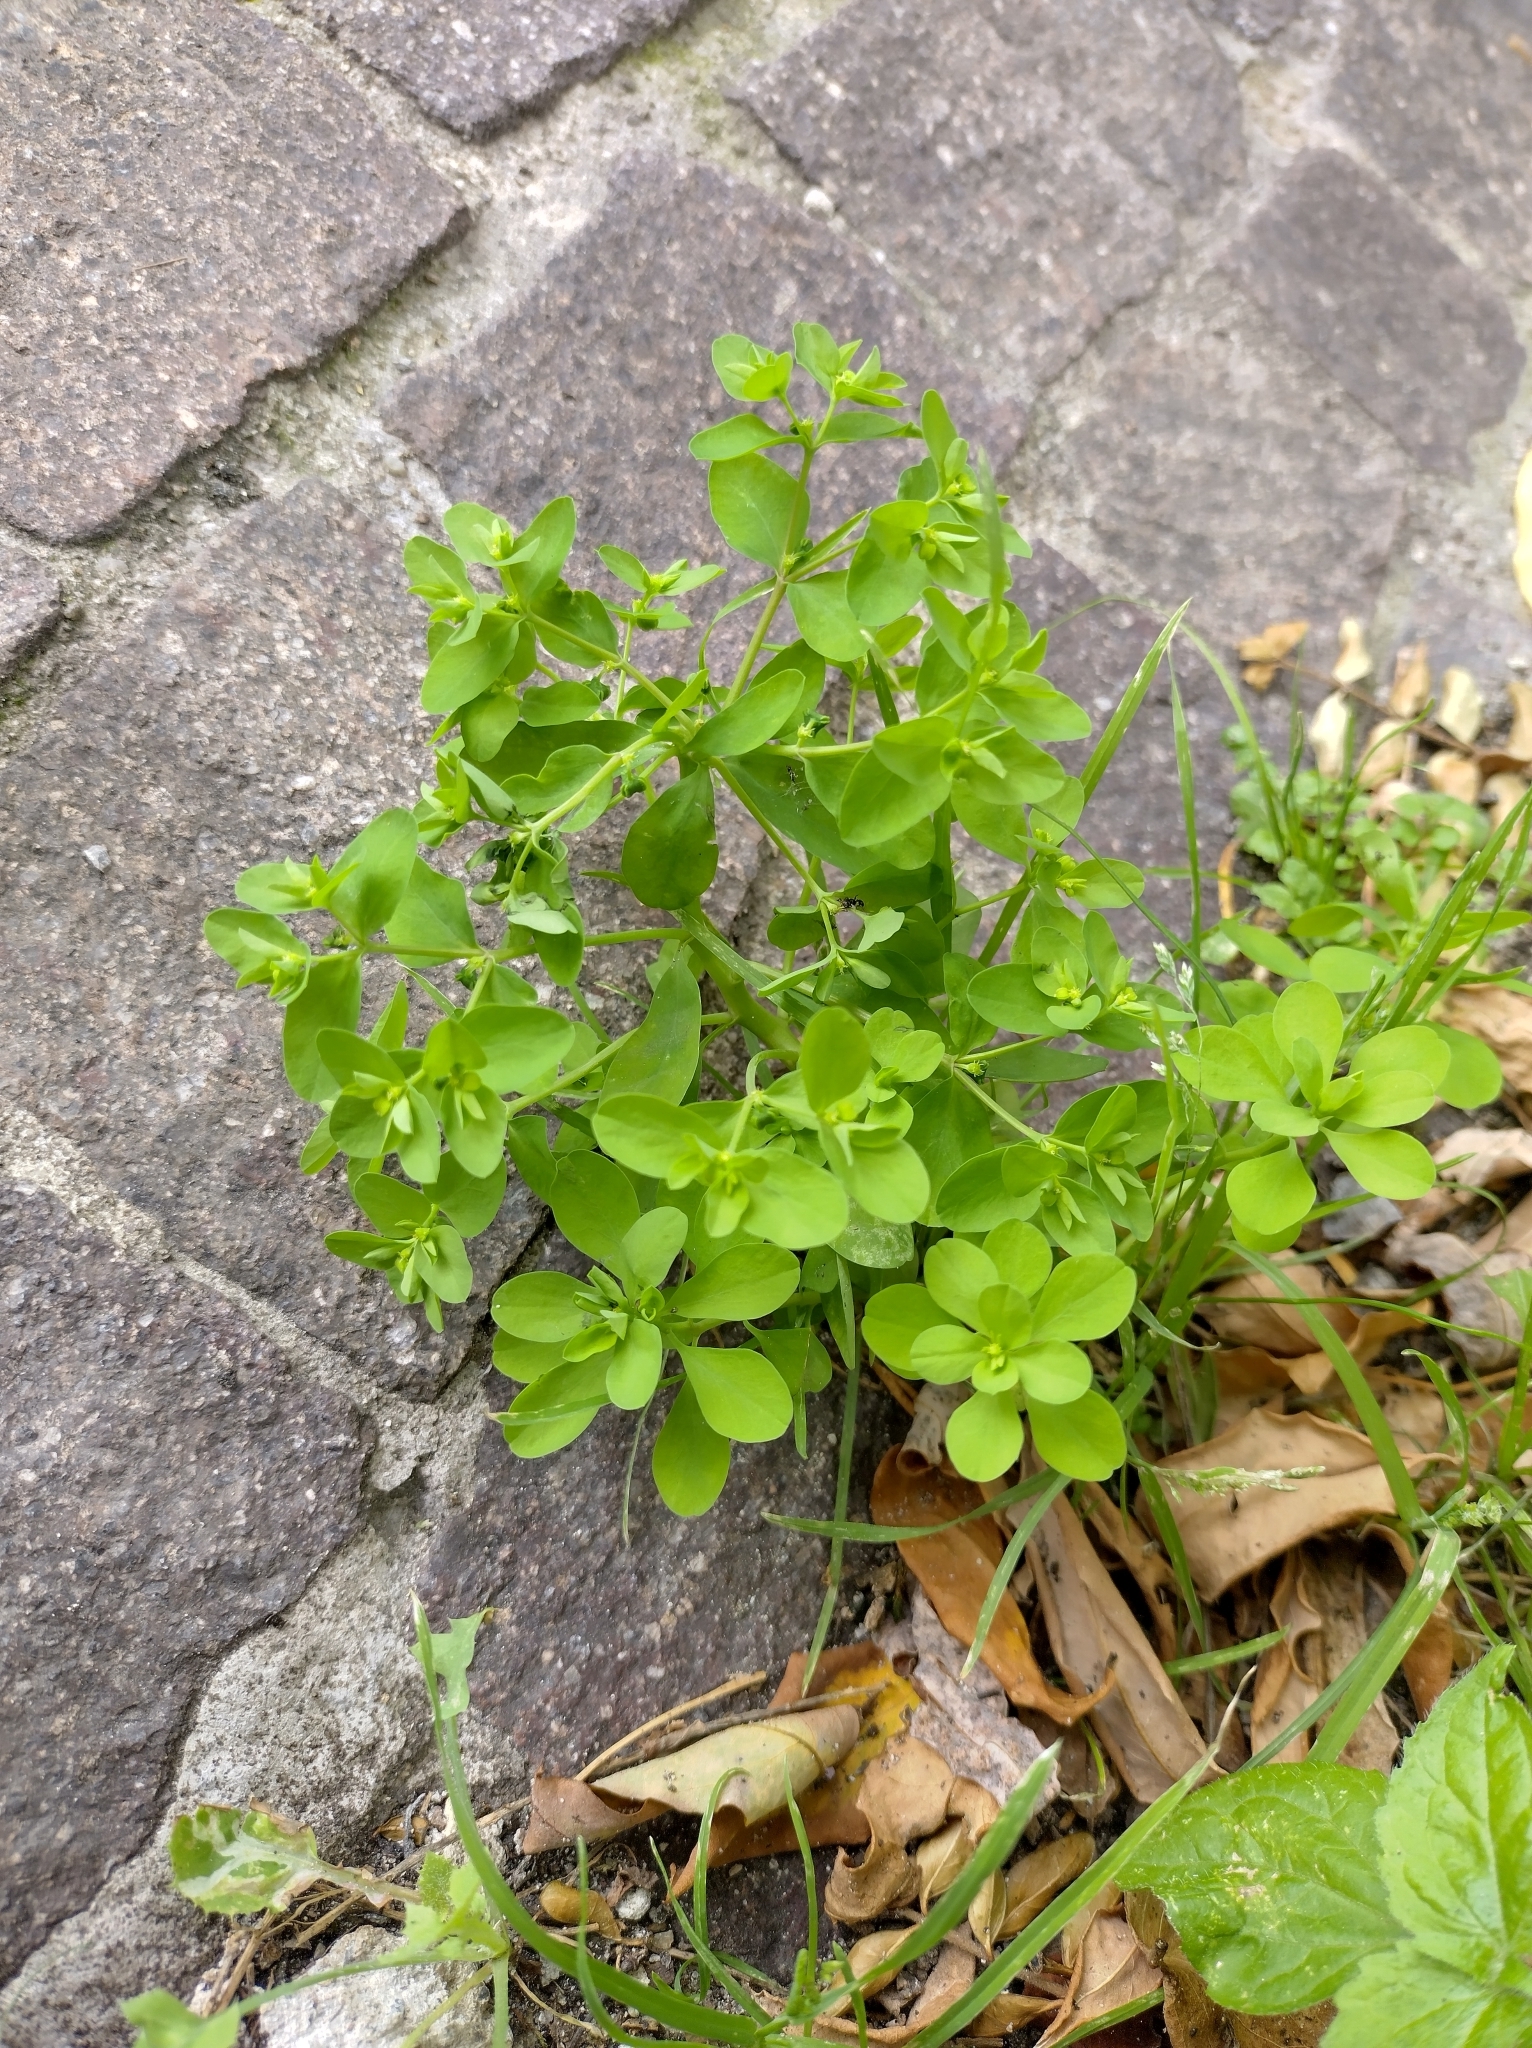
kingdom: Plantae
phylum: Tracheophyta
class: Magnoliopsida
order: Malpighiales
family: Euphorbiaceae
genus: Euphorbia
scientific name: Euphorbia peplus
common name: Petty spurge
